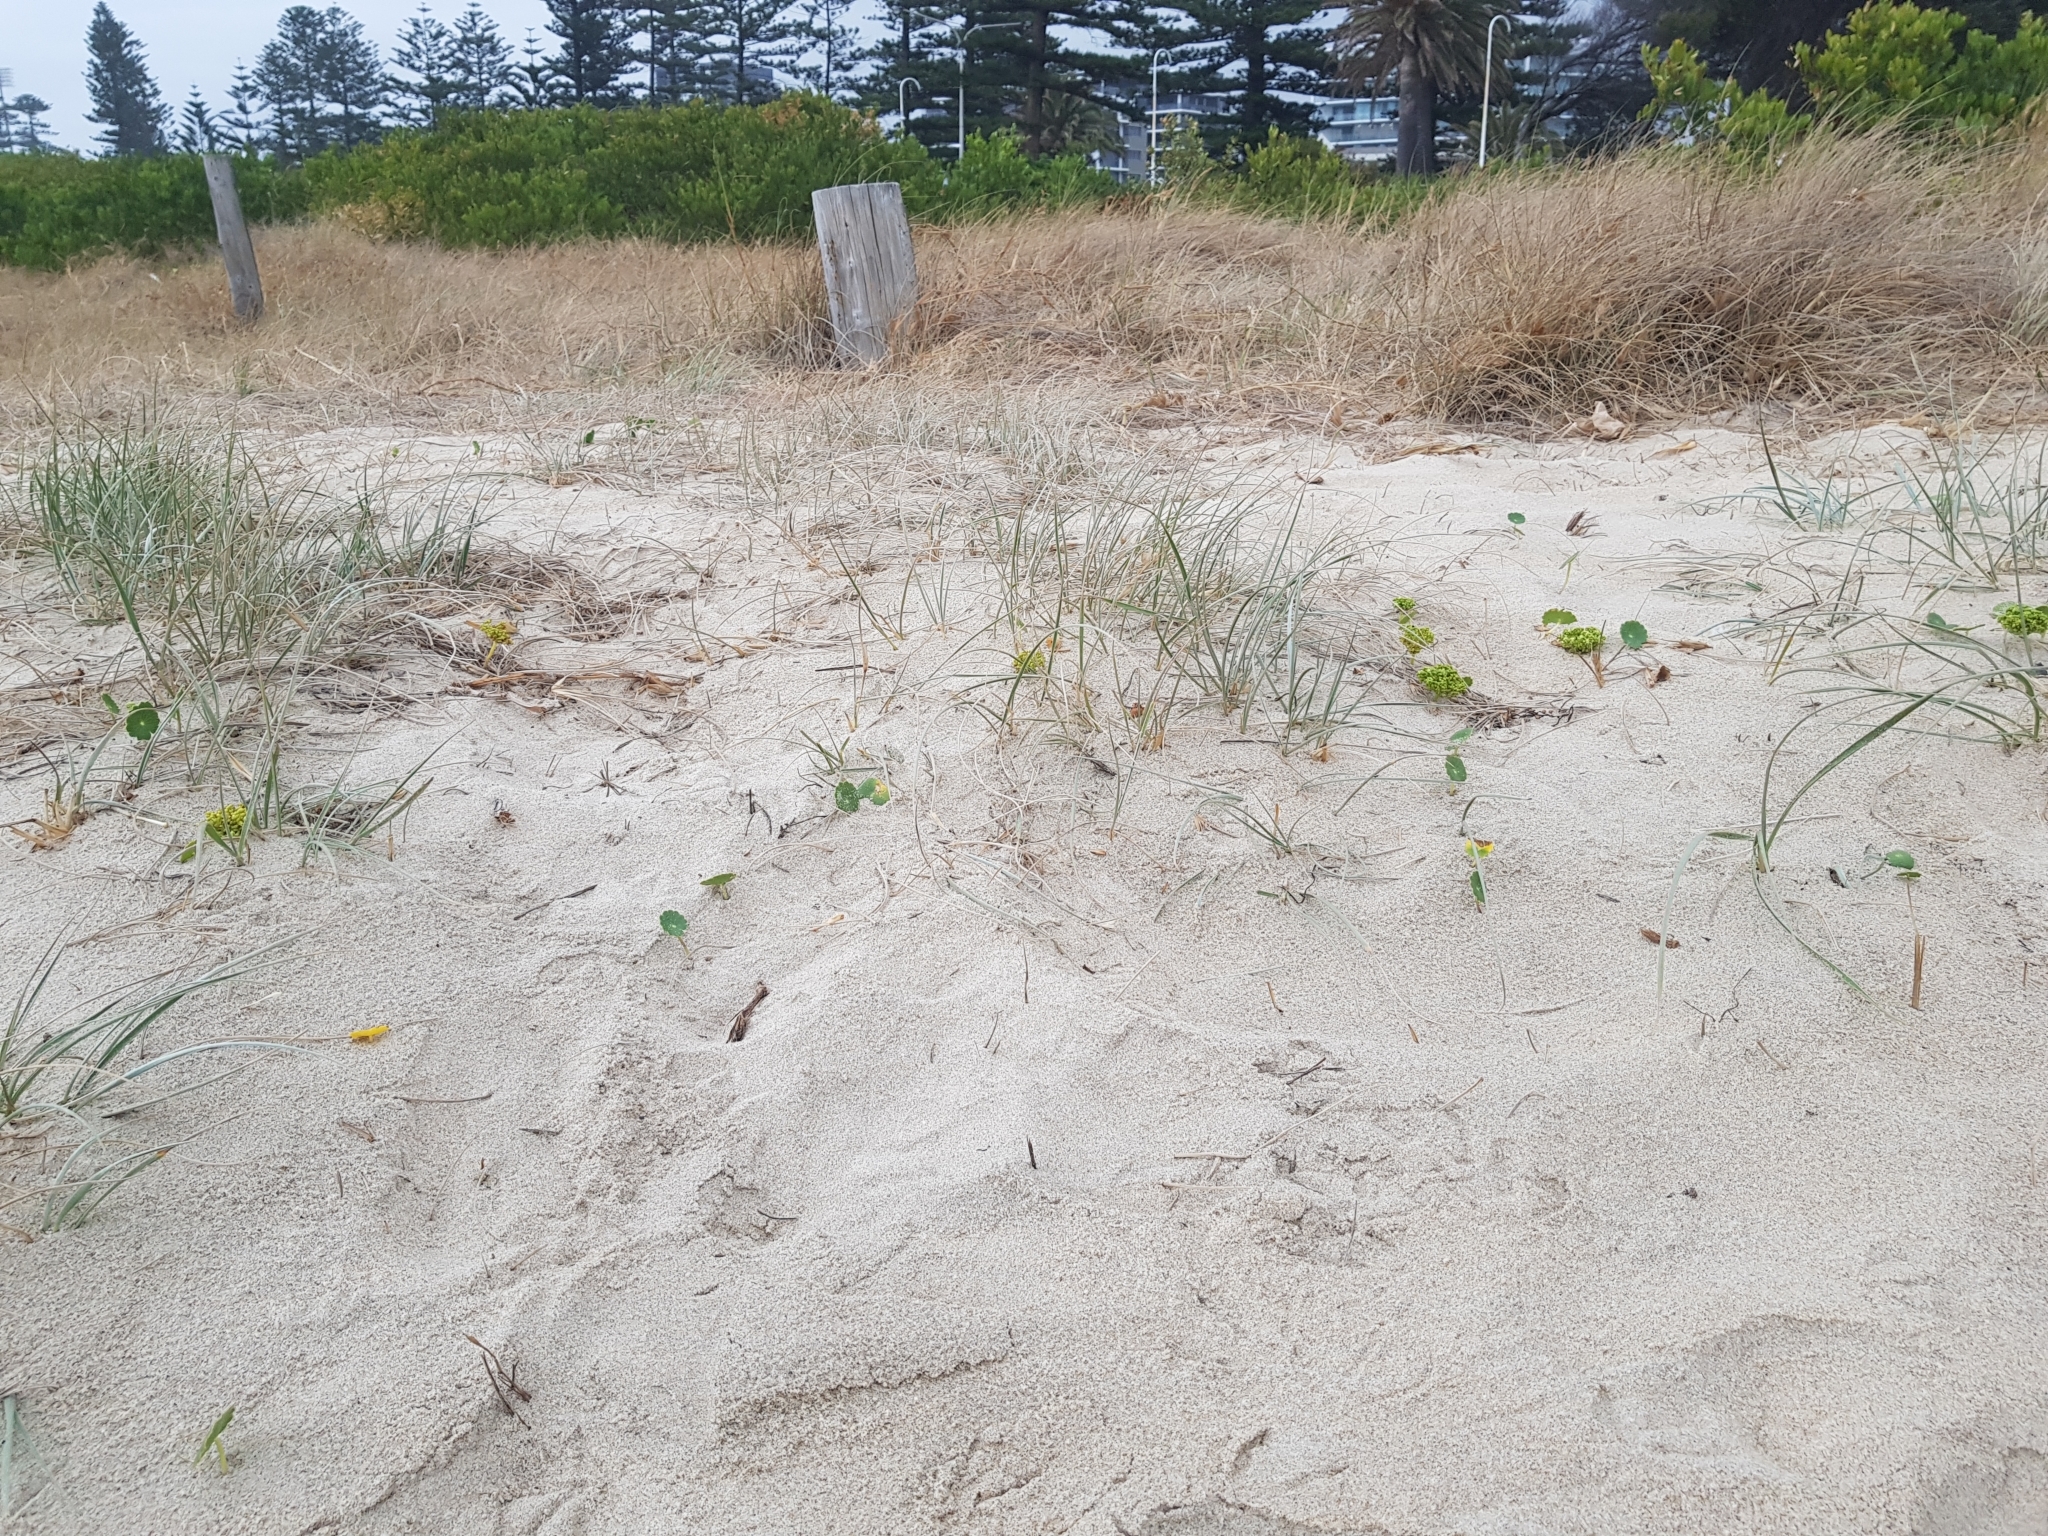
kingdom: Plantae
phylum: Tracheophyta
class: Magnoliopsida
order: Apiales
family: Araliaceae
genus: Hydrocotyle
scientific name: Hydrocotyle bonariensis
